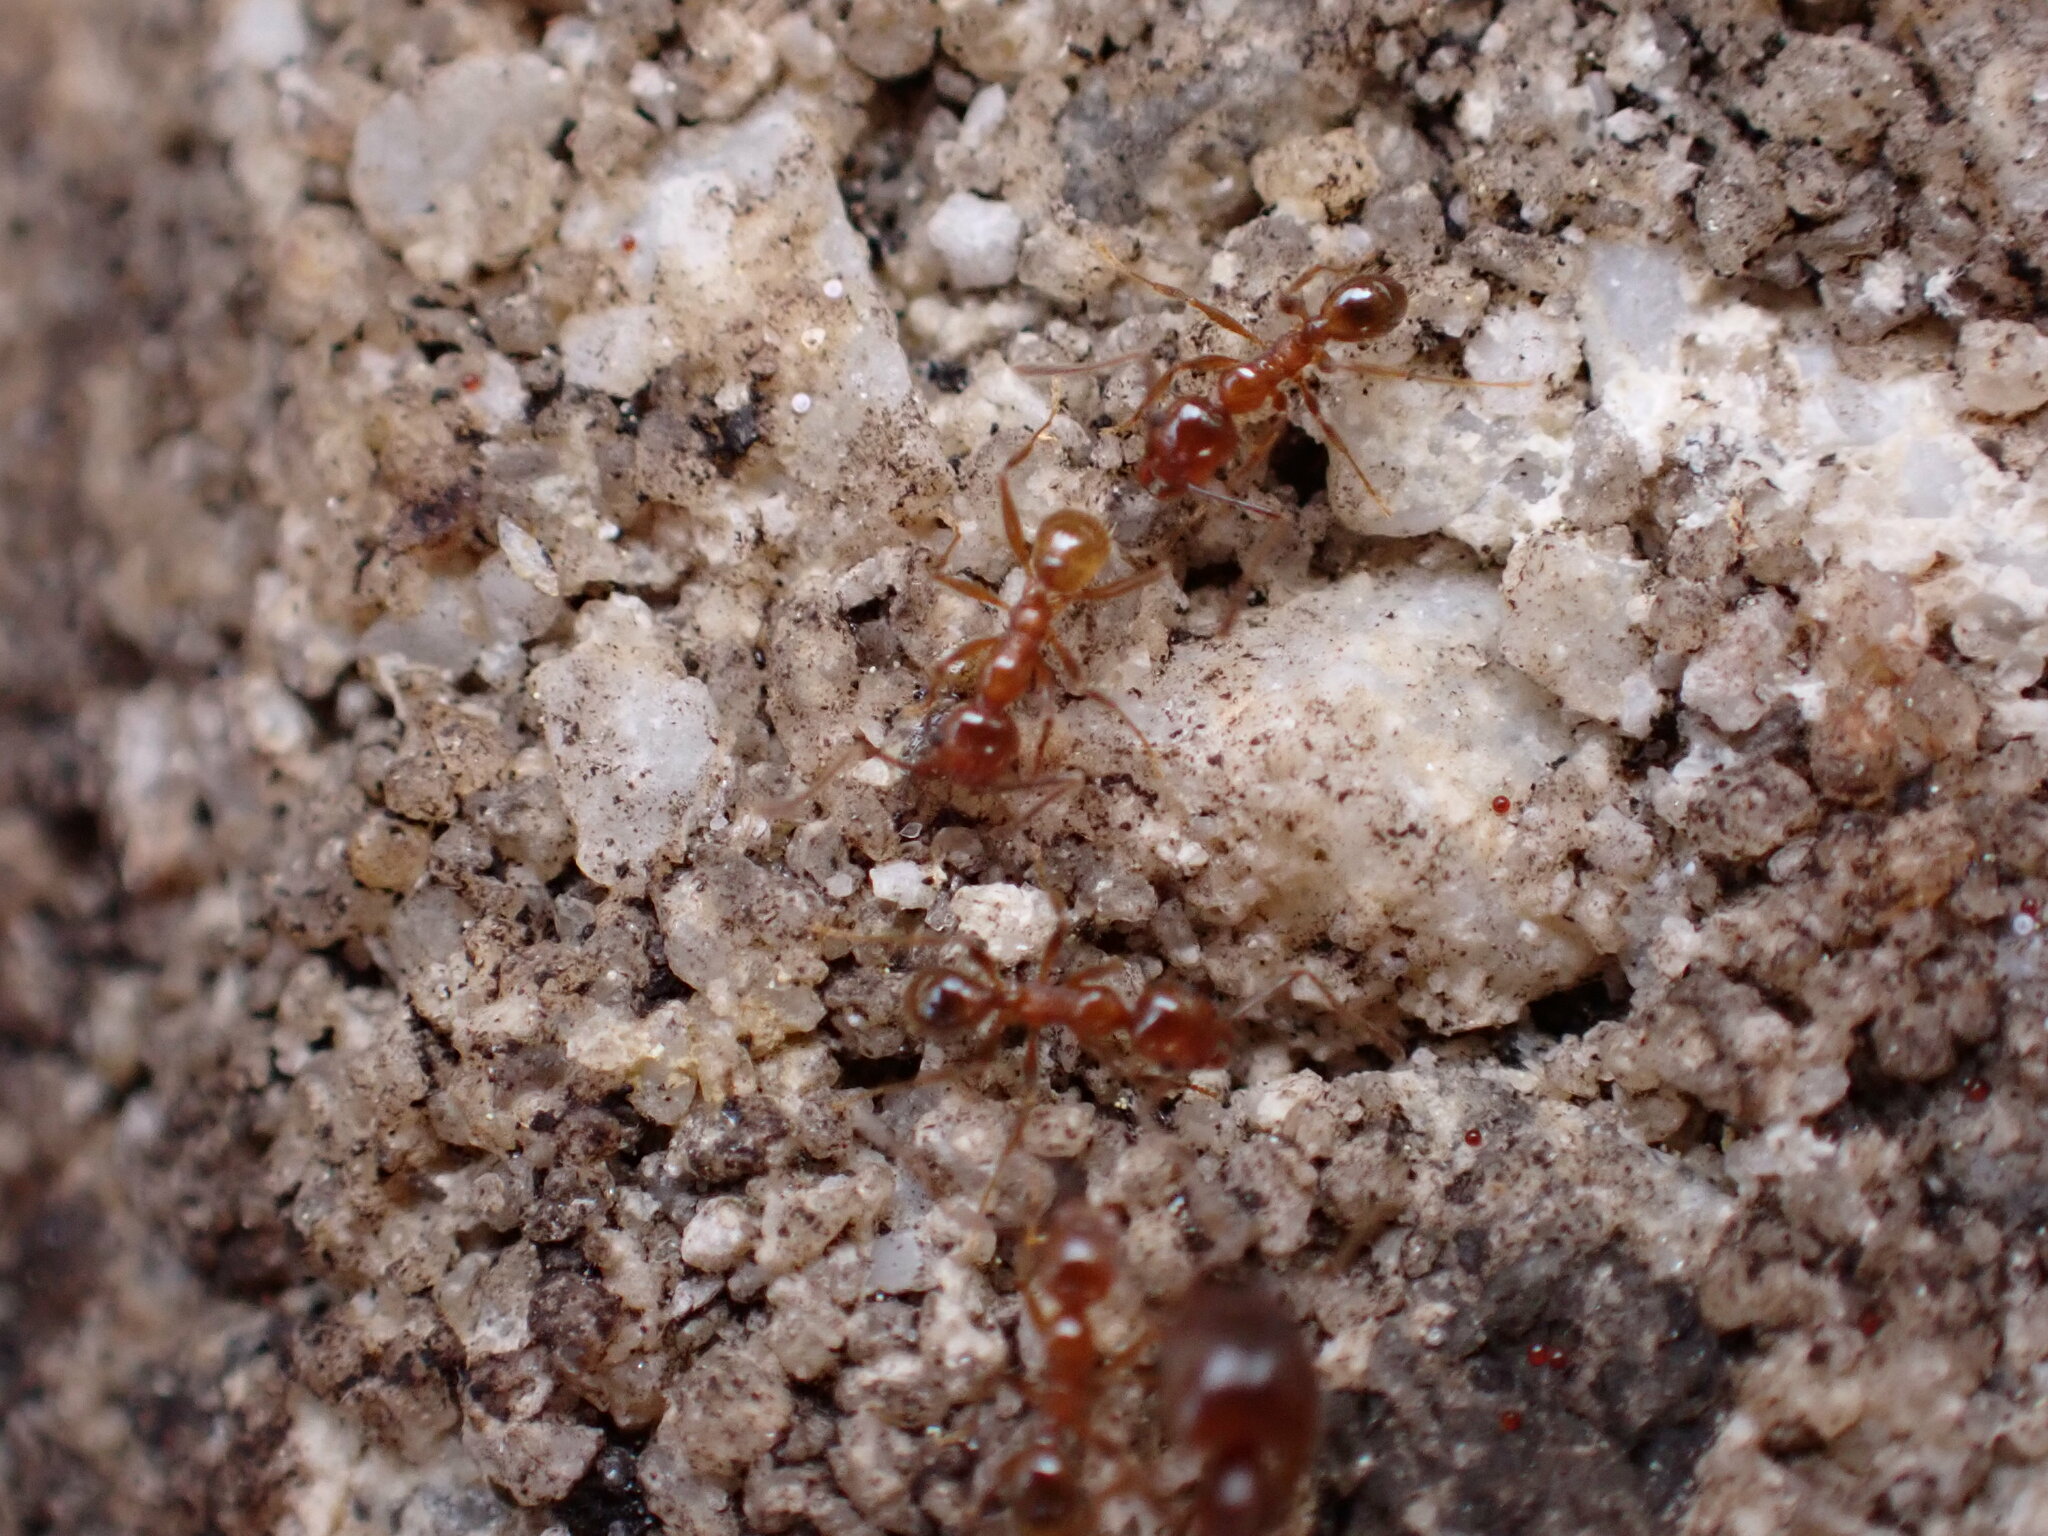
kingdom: Animalia
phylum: Arthropoda
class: Insecta
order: Hymenoptera
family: Formicidae
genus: Pheidole
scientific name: Pheidole dentata
